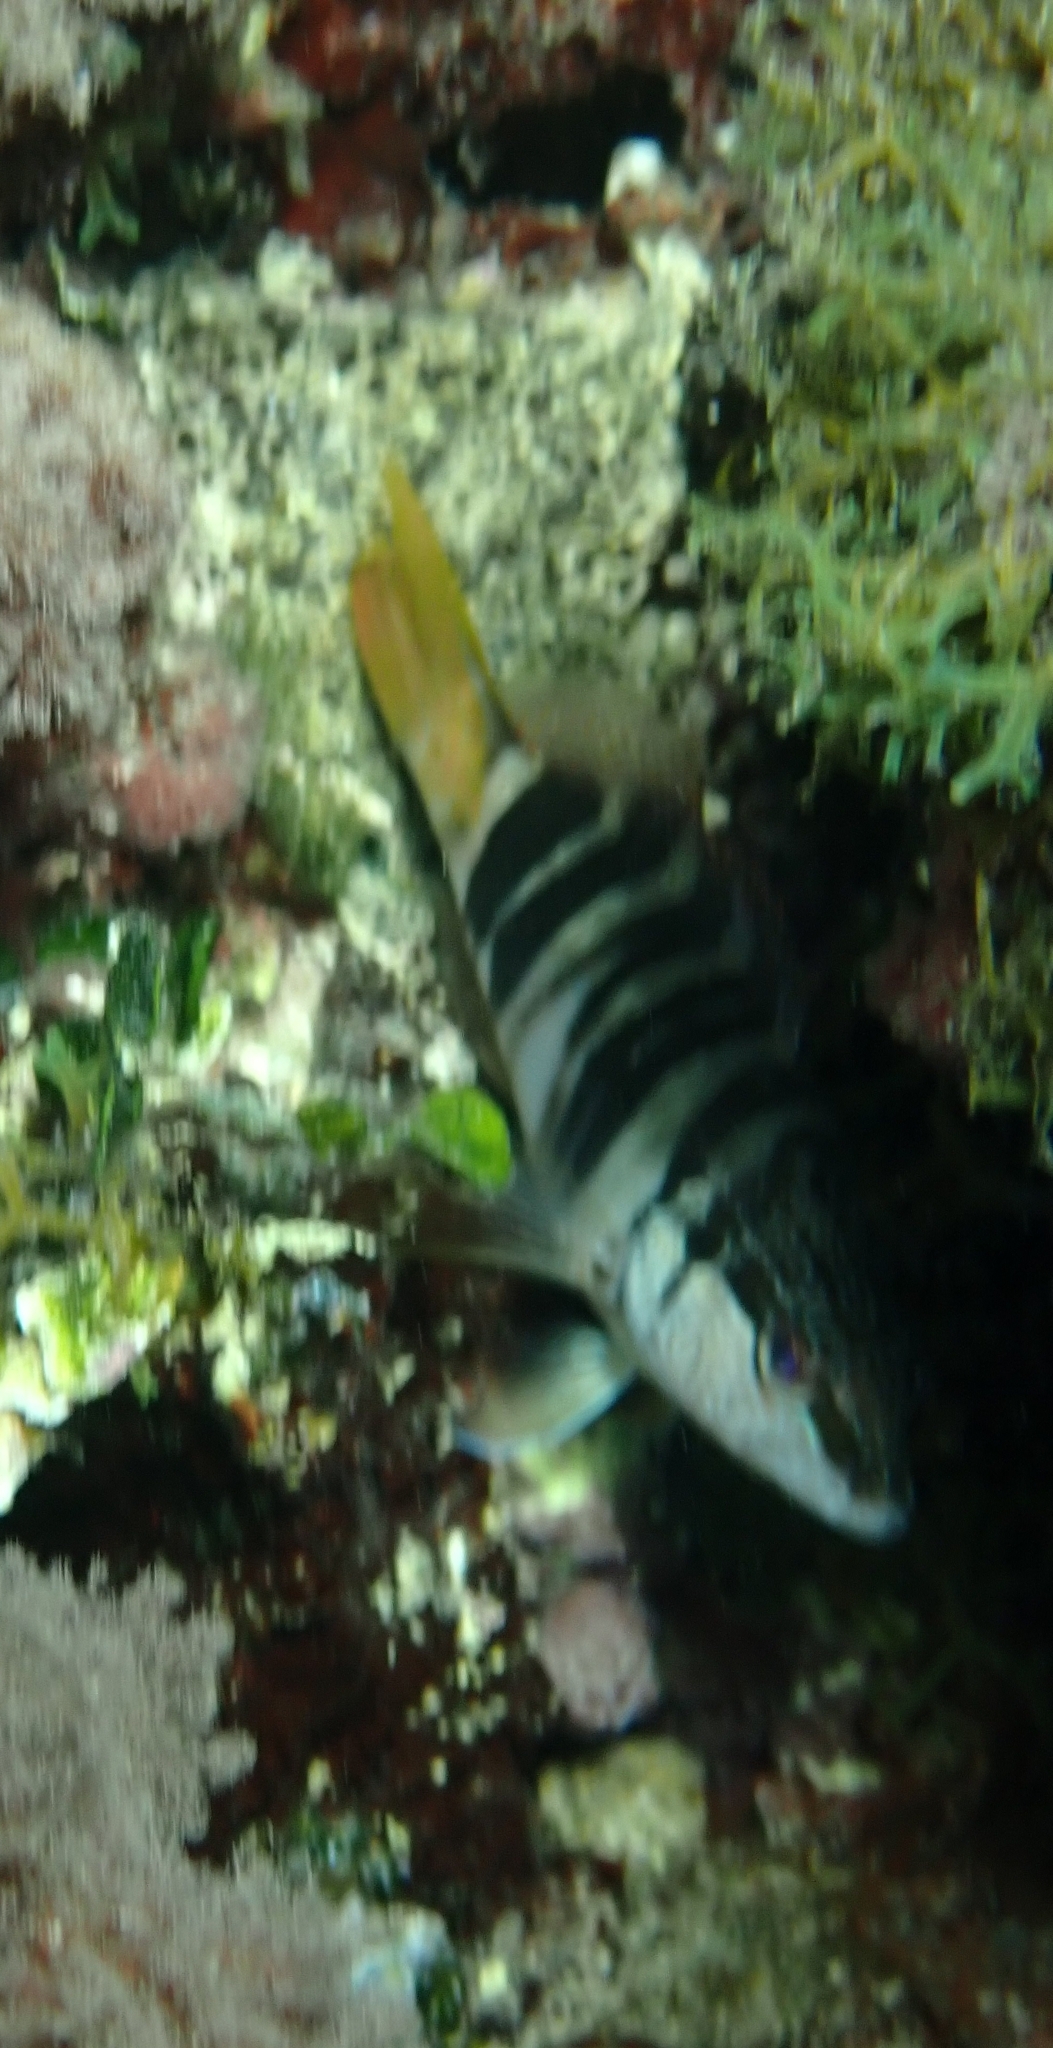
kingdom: Animalia
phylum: Chordata
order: Perciformes
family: Serranidae
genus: Serranus
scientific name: Serranus scriba
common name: Painted comber
